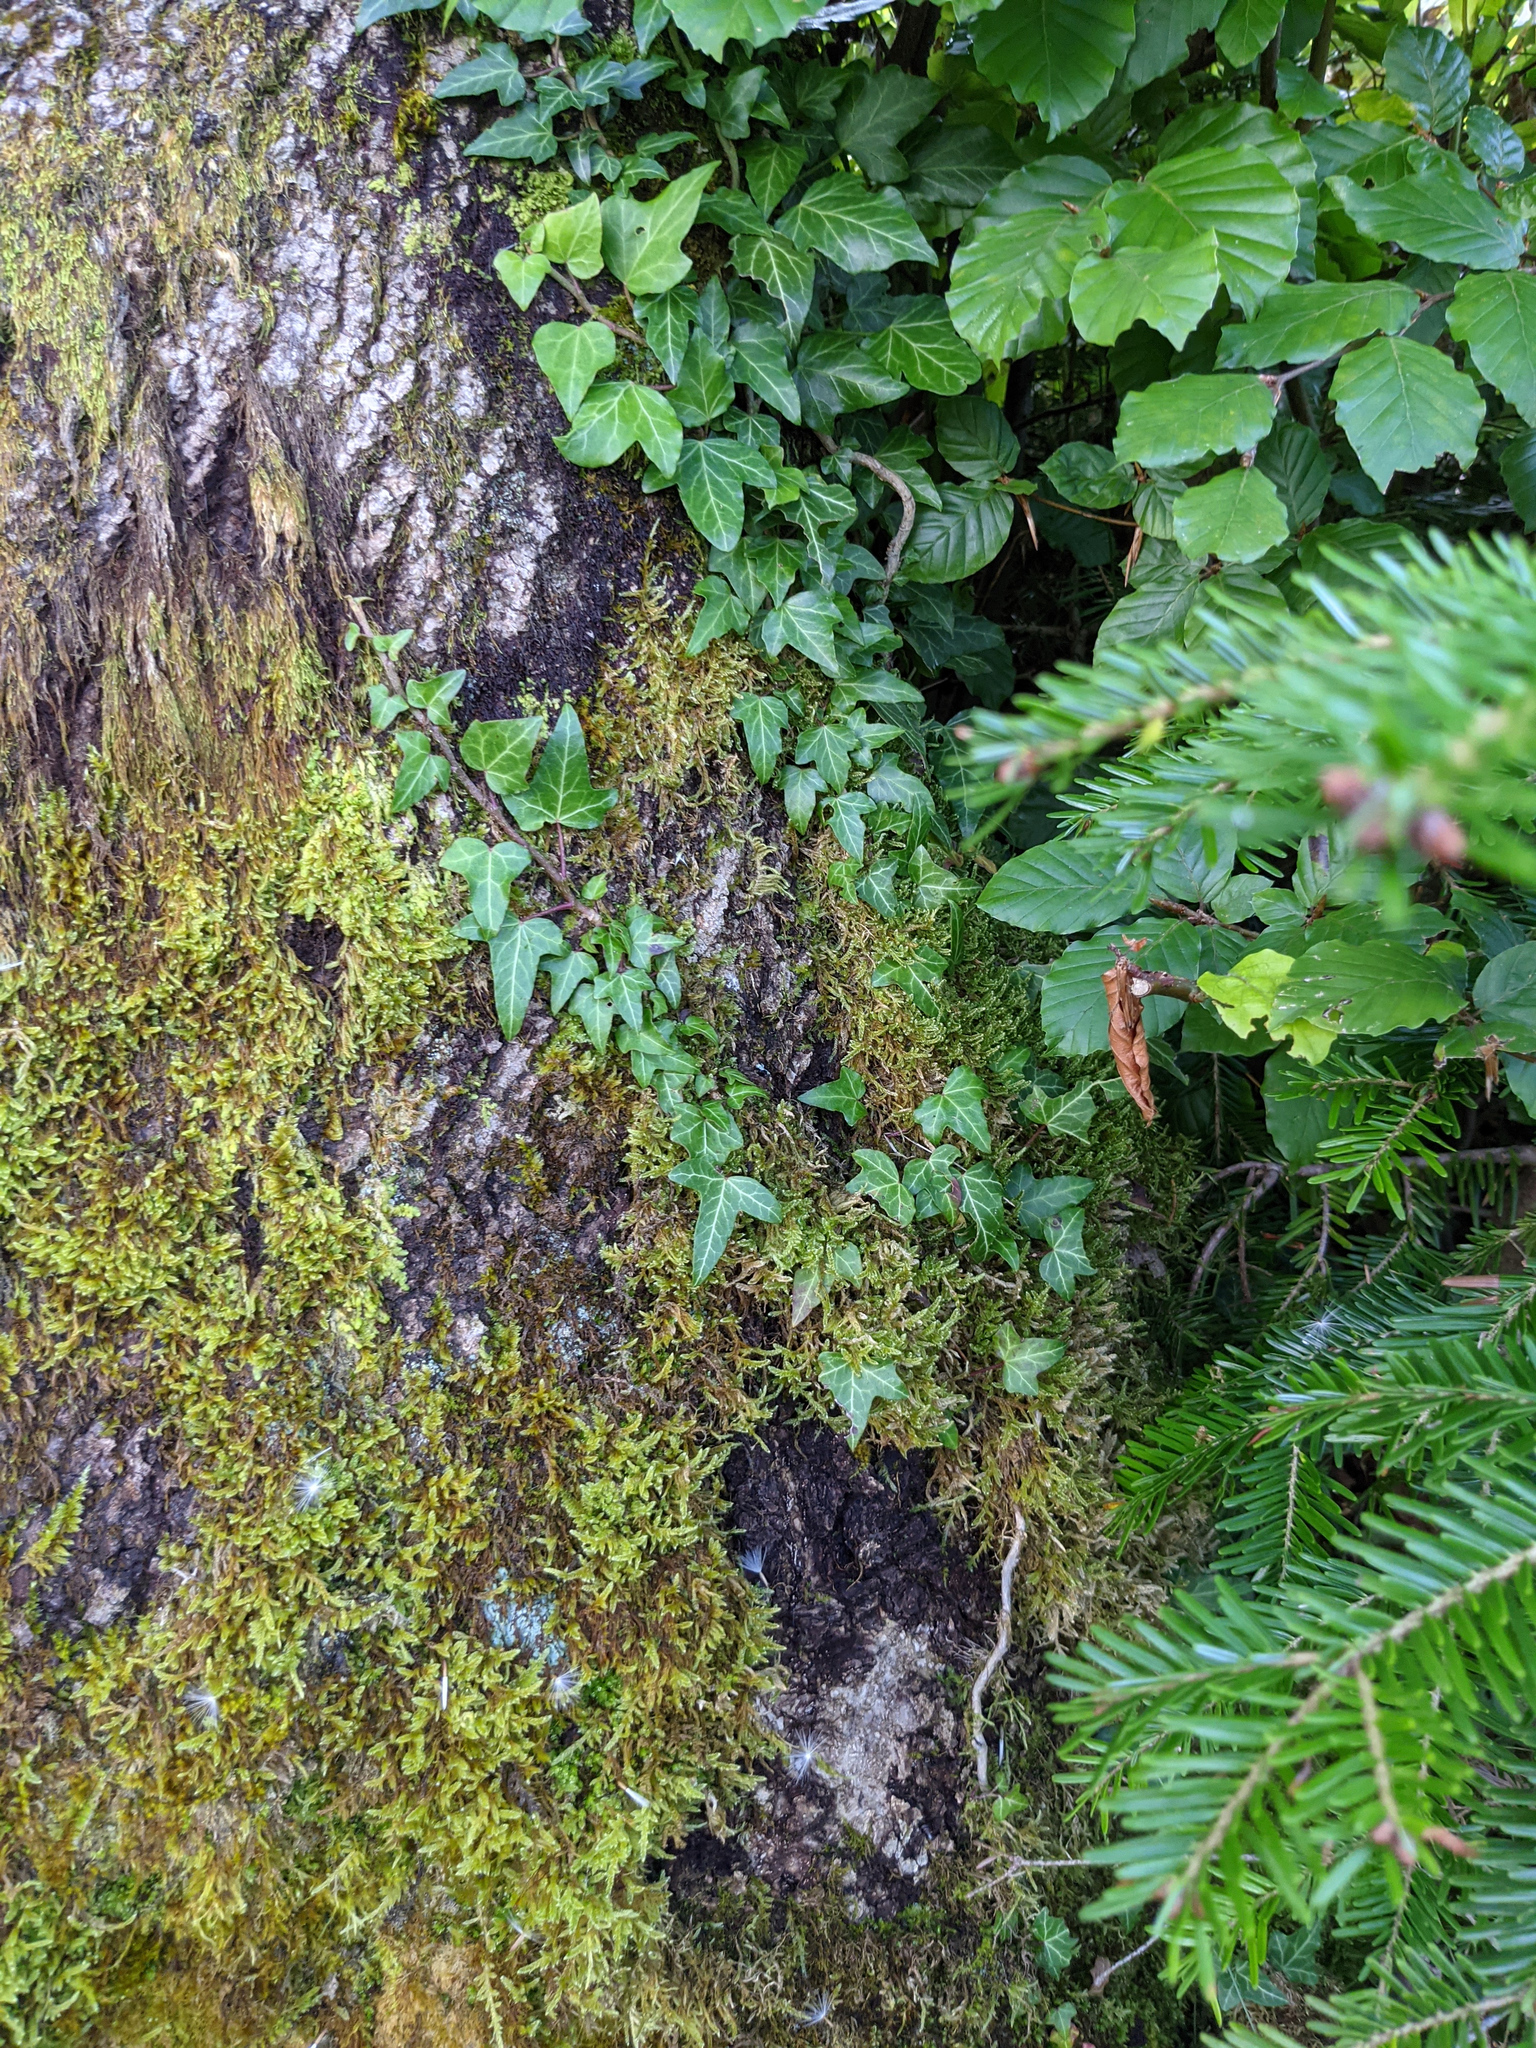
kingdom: Plantae
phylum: Tracheophyta
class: Magnoliopsida
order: Apiales
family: Araliaceae
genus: Hedera
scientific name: Hedera helix
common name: Ivy
